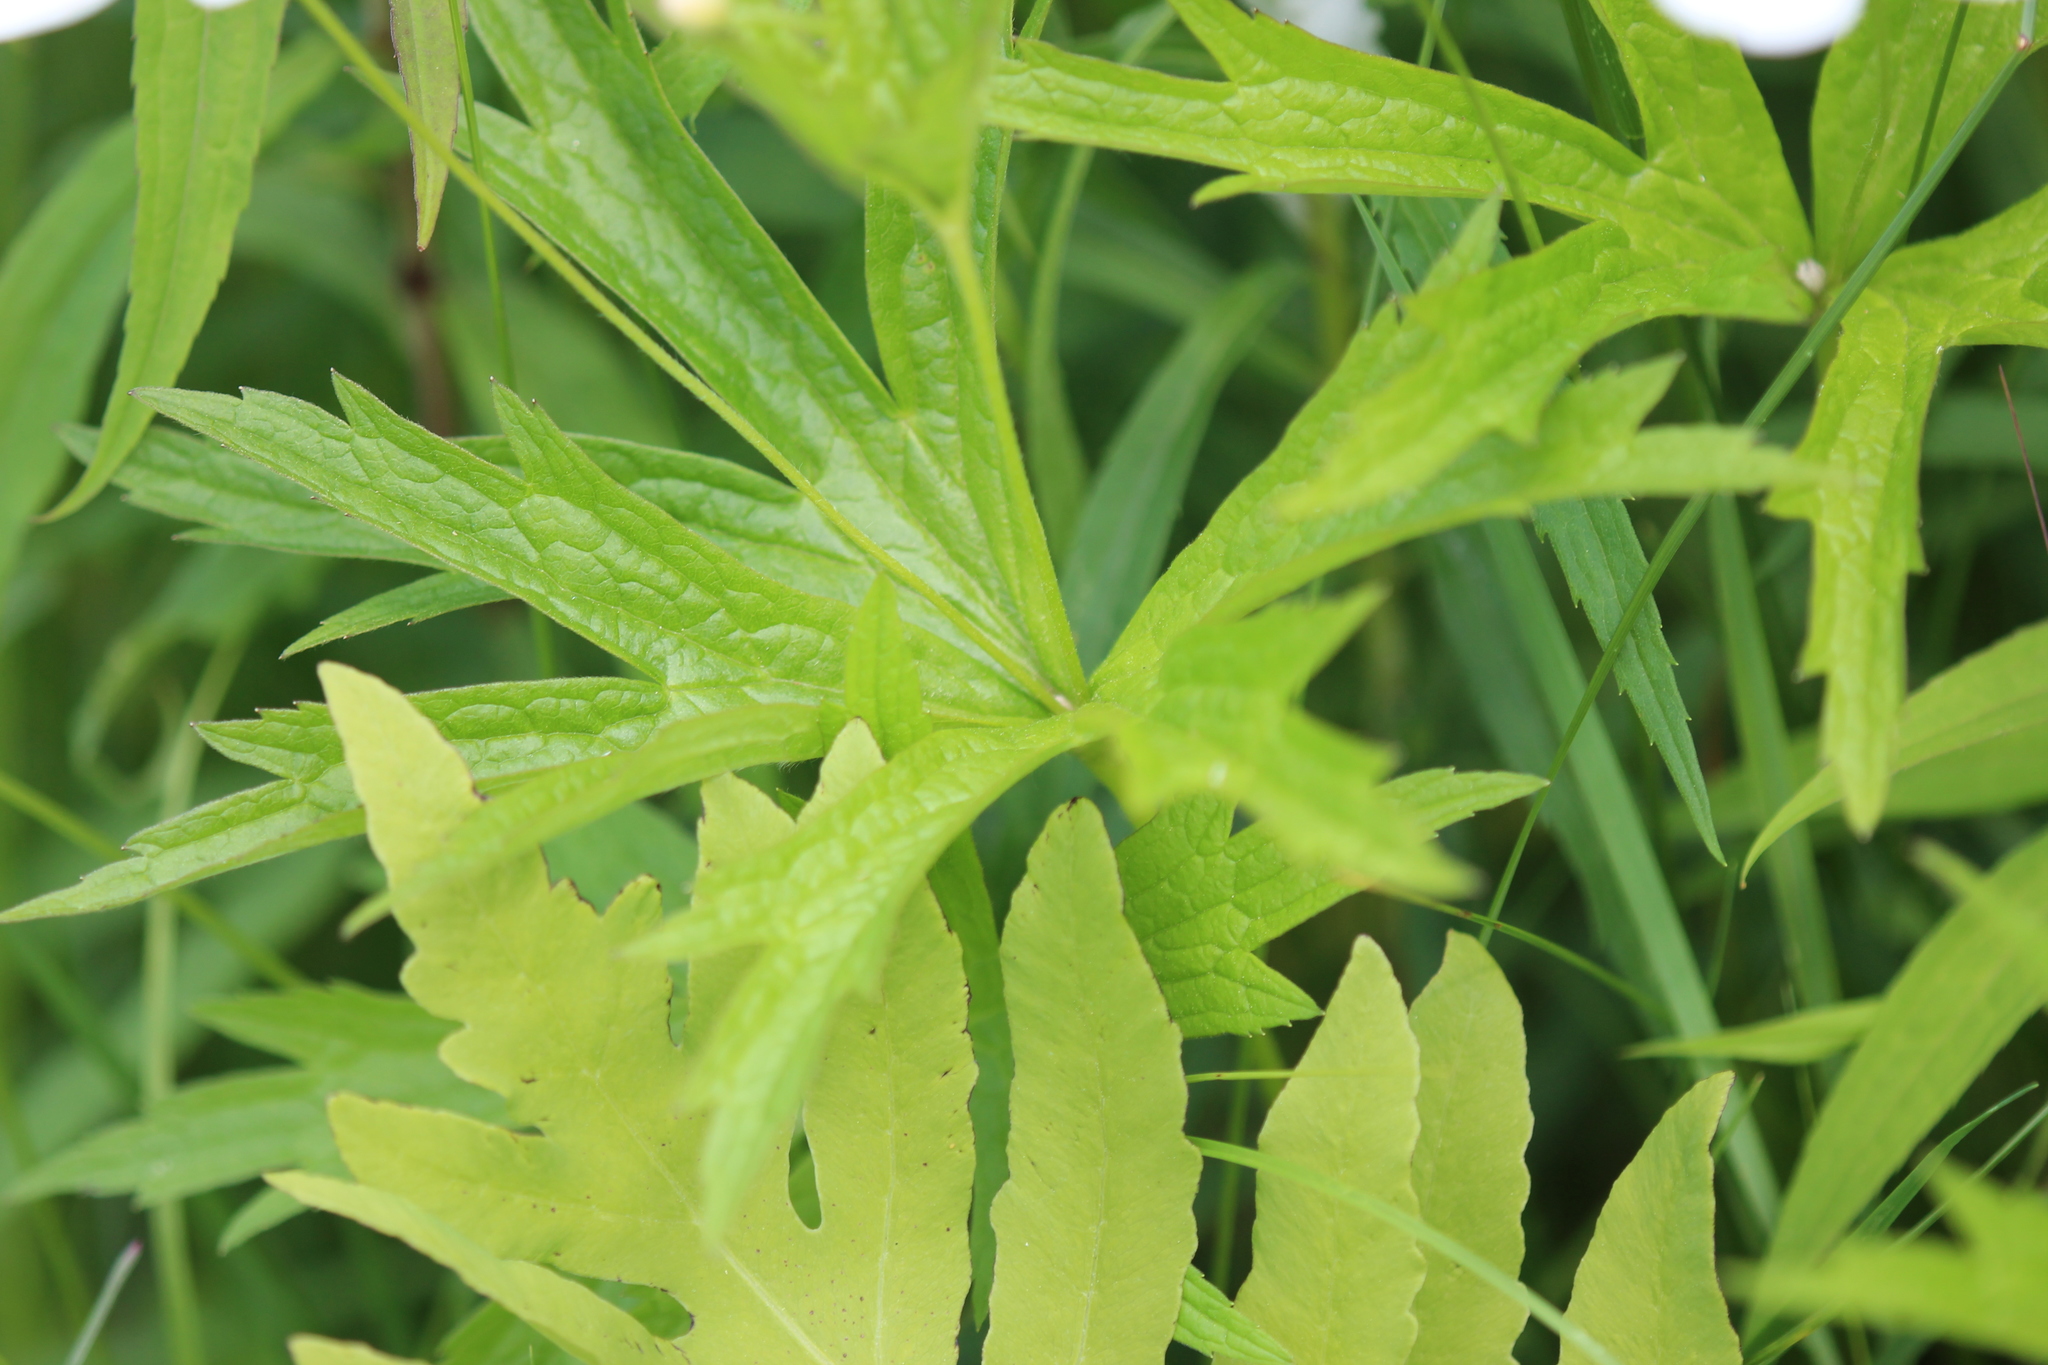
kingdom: Plantae
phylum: Tracheophyta
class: Magnoliopsida
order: Ranunculales
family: Ranunculaceae
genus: Anemonastrum
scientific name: Anemonastrum canadense
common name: Canada anemone
